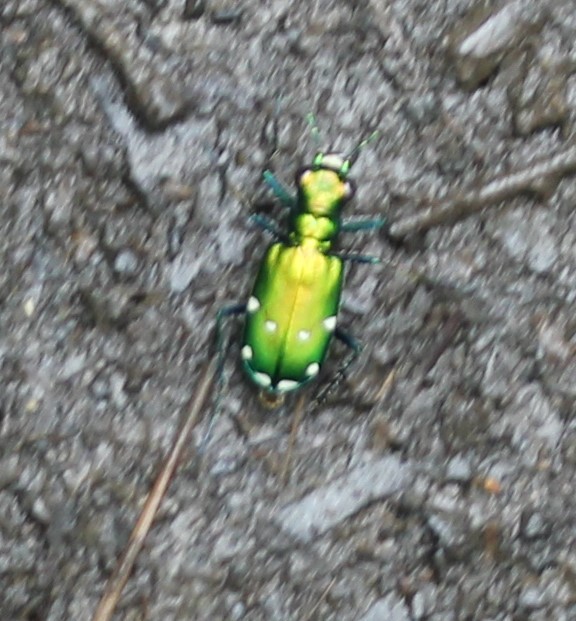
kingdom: Animalia
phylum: Arthropoda
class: Insecta
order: Coleoptera
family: Carabidae
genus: Cicindela
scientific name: Cicindela sexguttata
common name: Six-spotted tiger beetle
